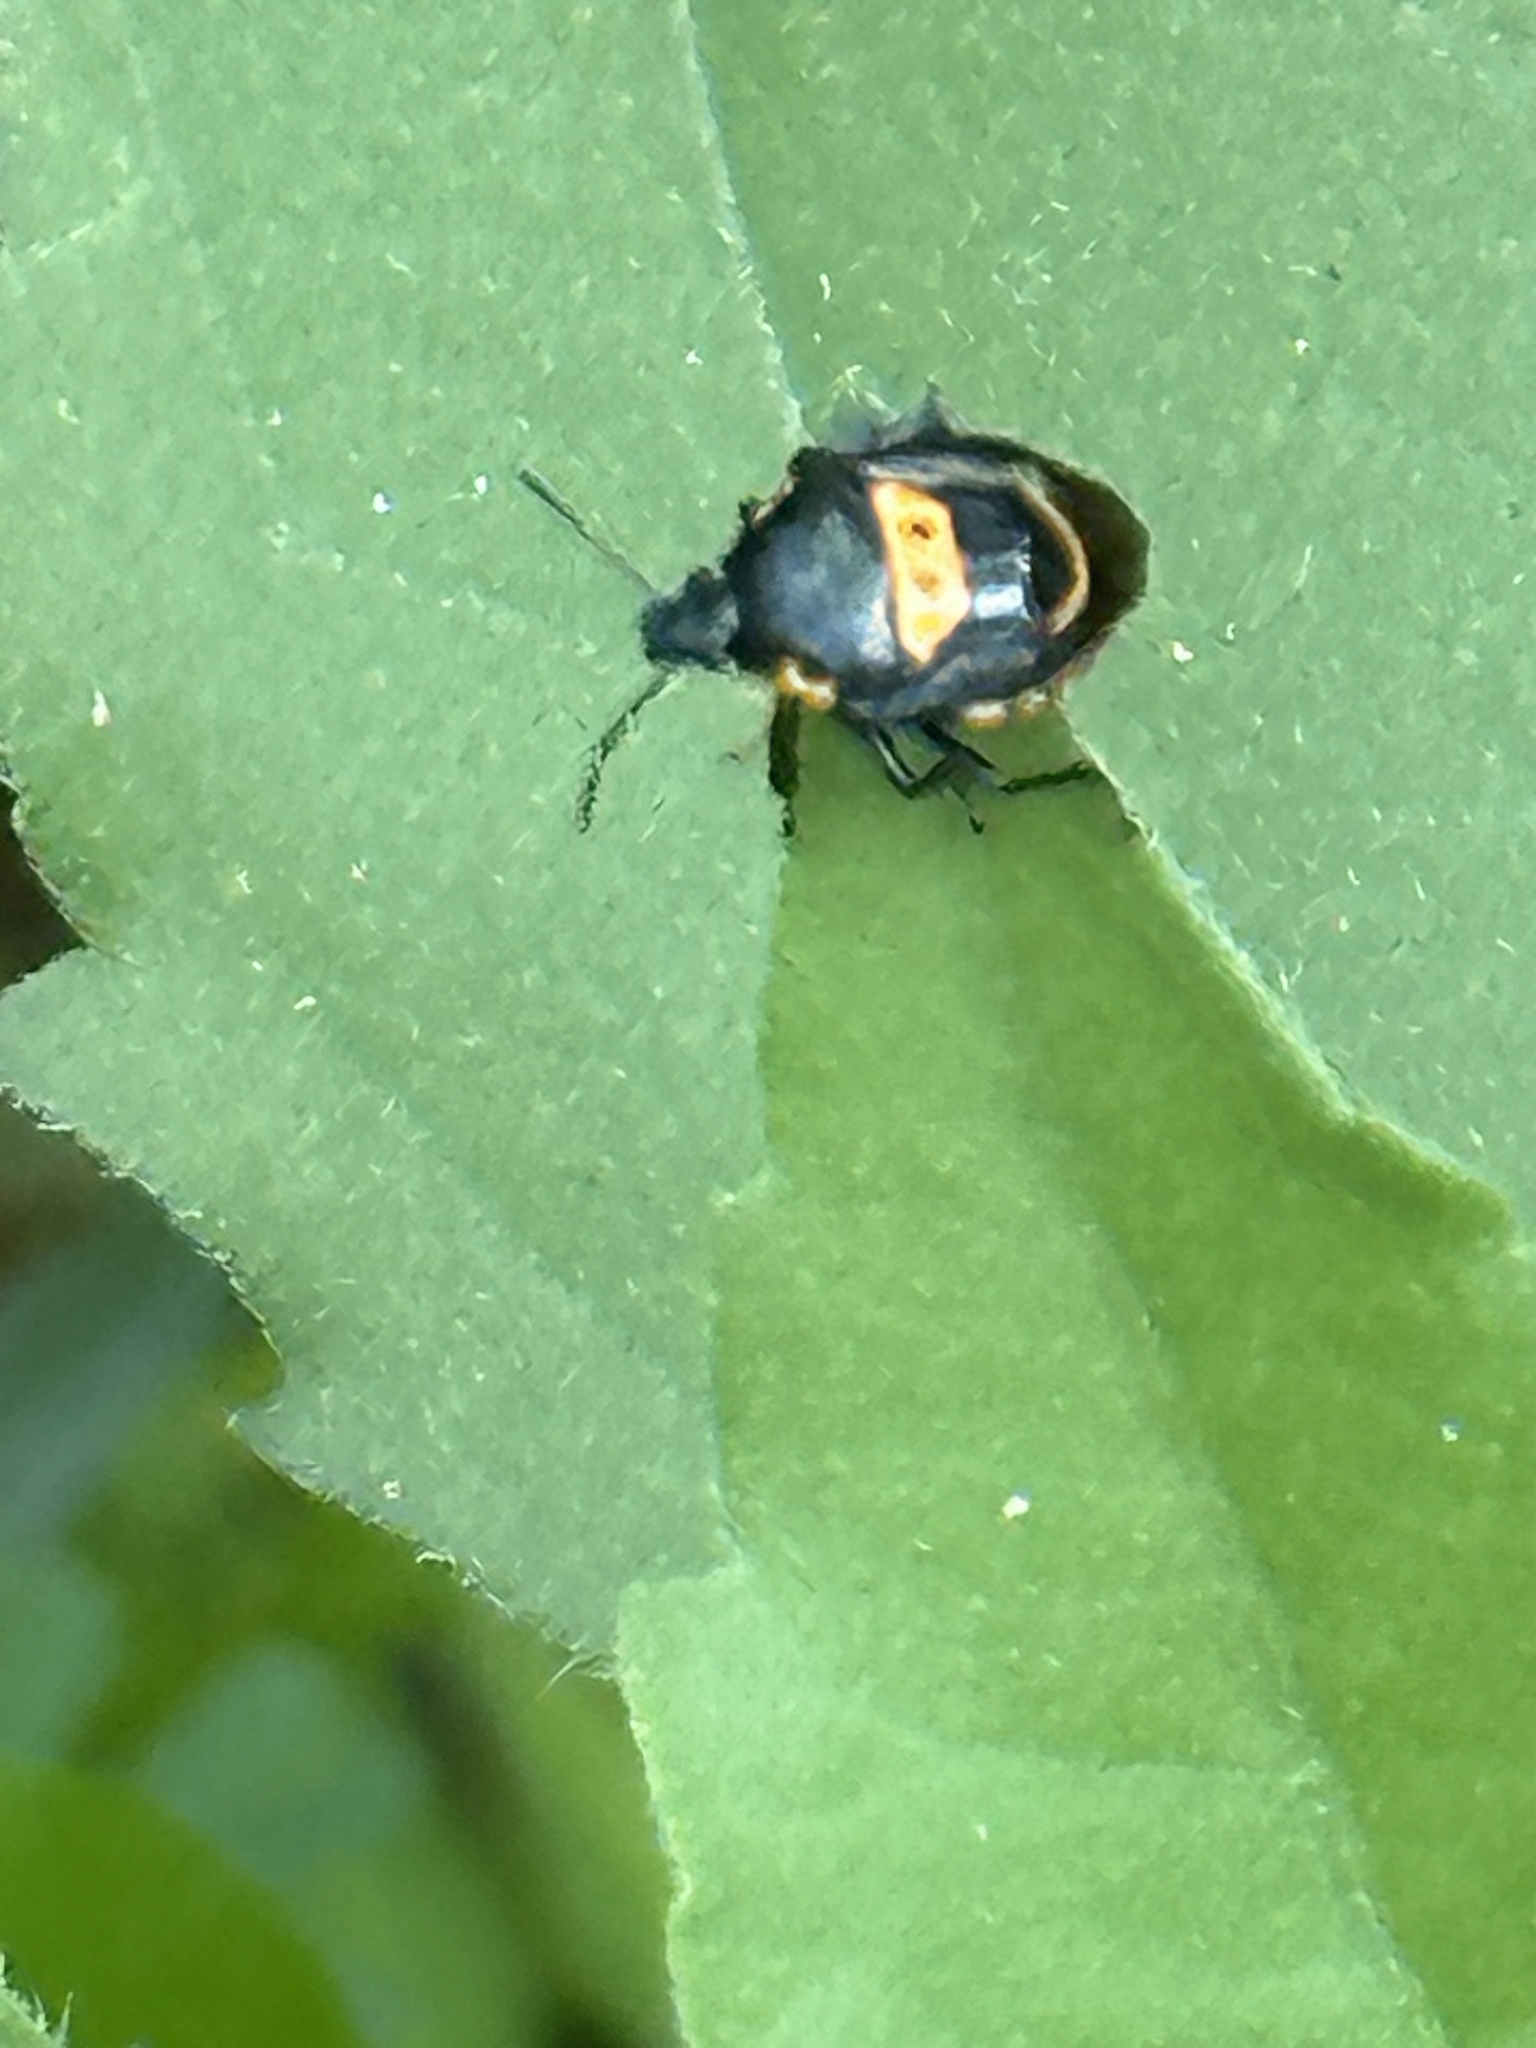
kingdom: Animalia
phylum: Arthropoda
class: Insecta
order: Hemiptera
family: Pentatomidae
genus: Stiretrus
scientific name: Stiretrus anchorago
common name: Anchor stink bug
